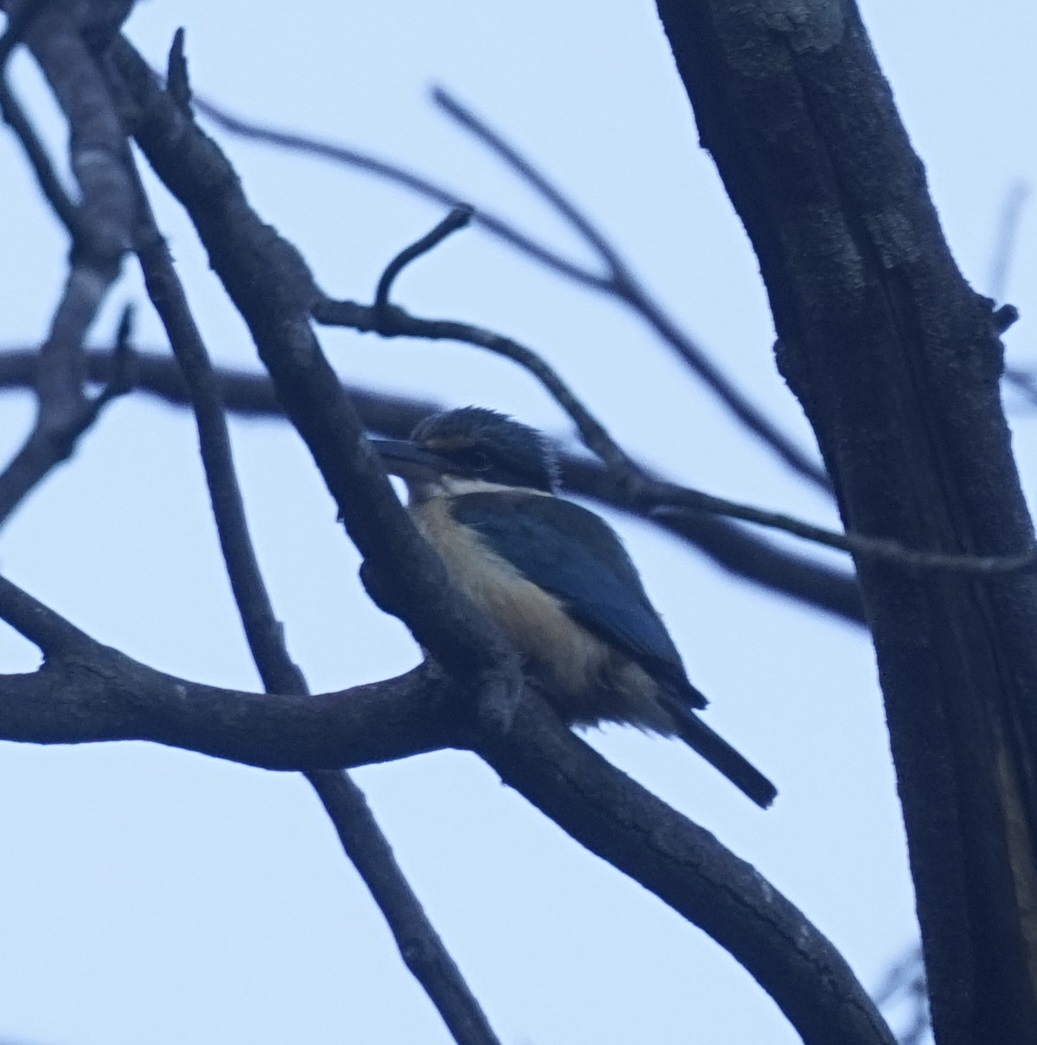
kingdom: Animalia
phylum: Chordata
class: Aves
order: Coraciiformes
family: Alcedinidae
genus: Todiramphus
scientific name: Todiramphus sanctus
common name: Sacred kingfisher
